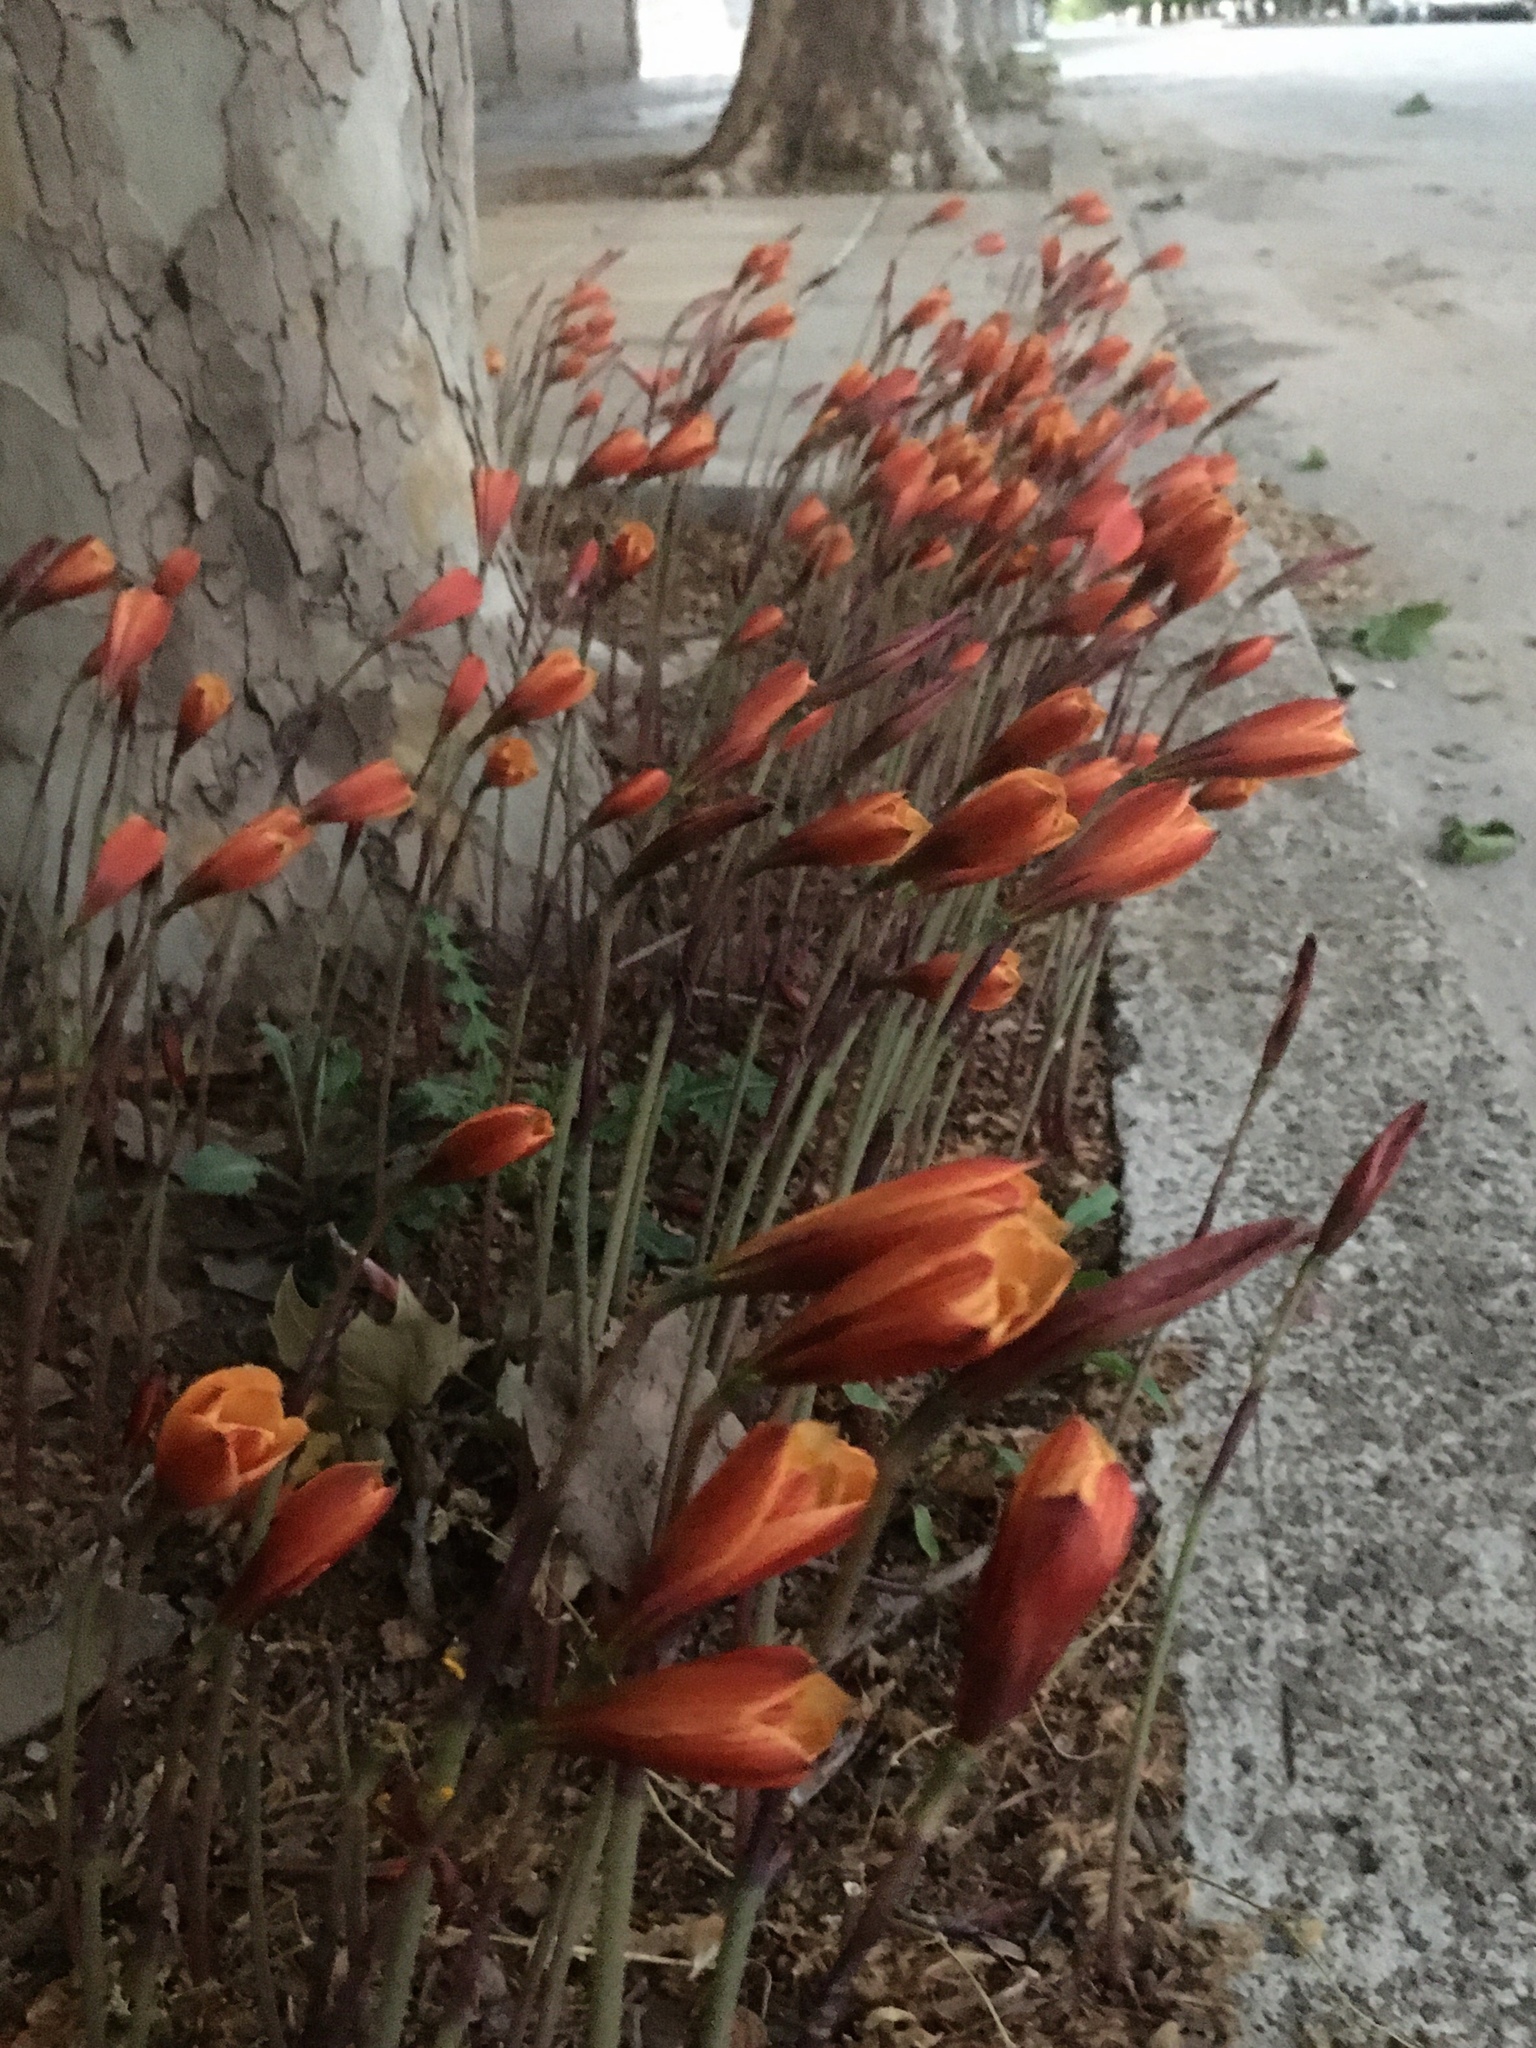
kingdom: Plantae
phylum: Tracheophyta
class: Liliopsida
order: Asparagales
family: Amaryllidaceae
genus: Zephyranthes
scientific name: Zephyranthes tubispatha
